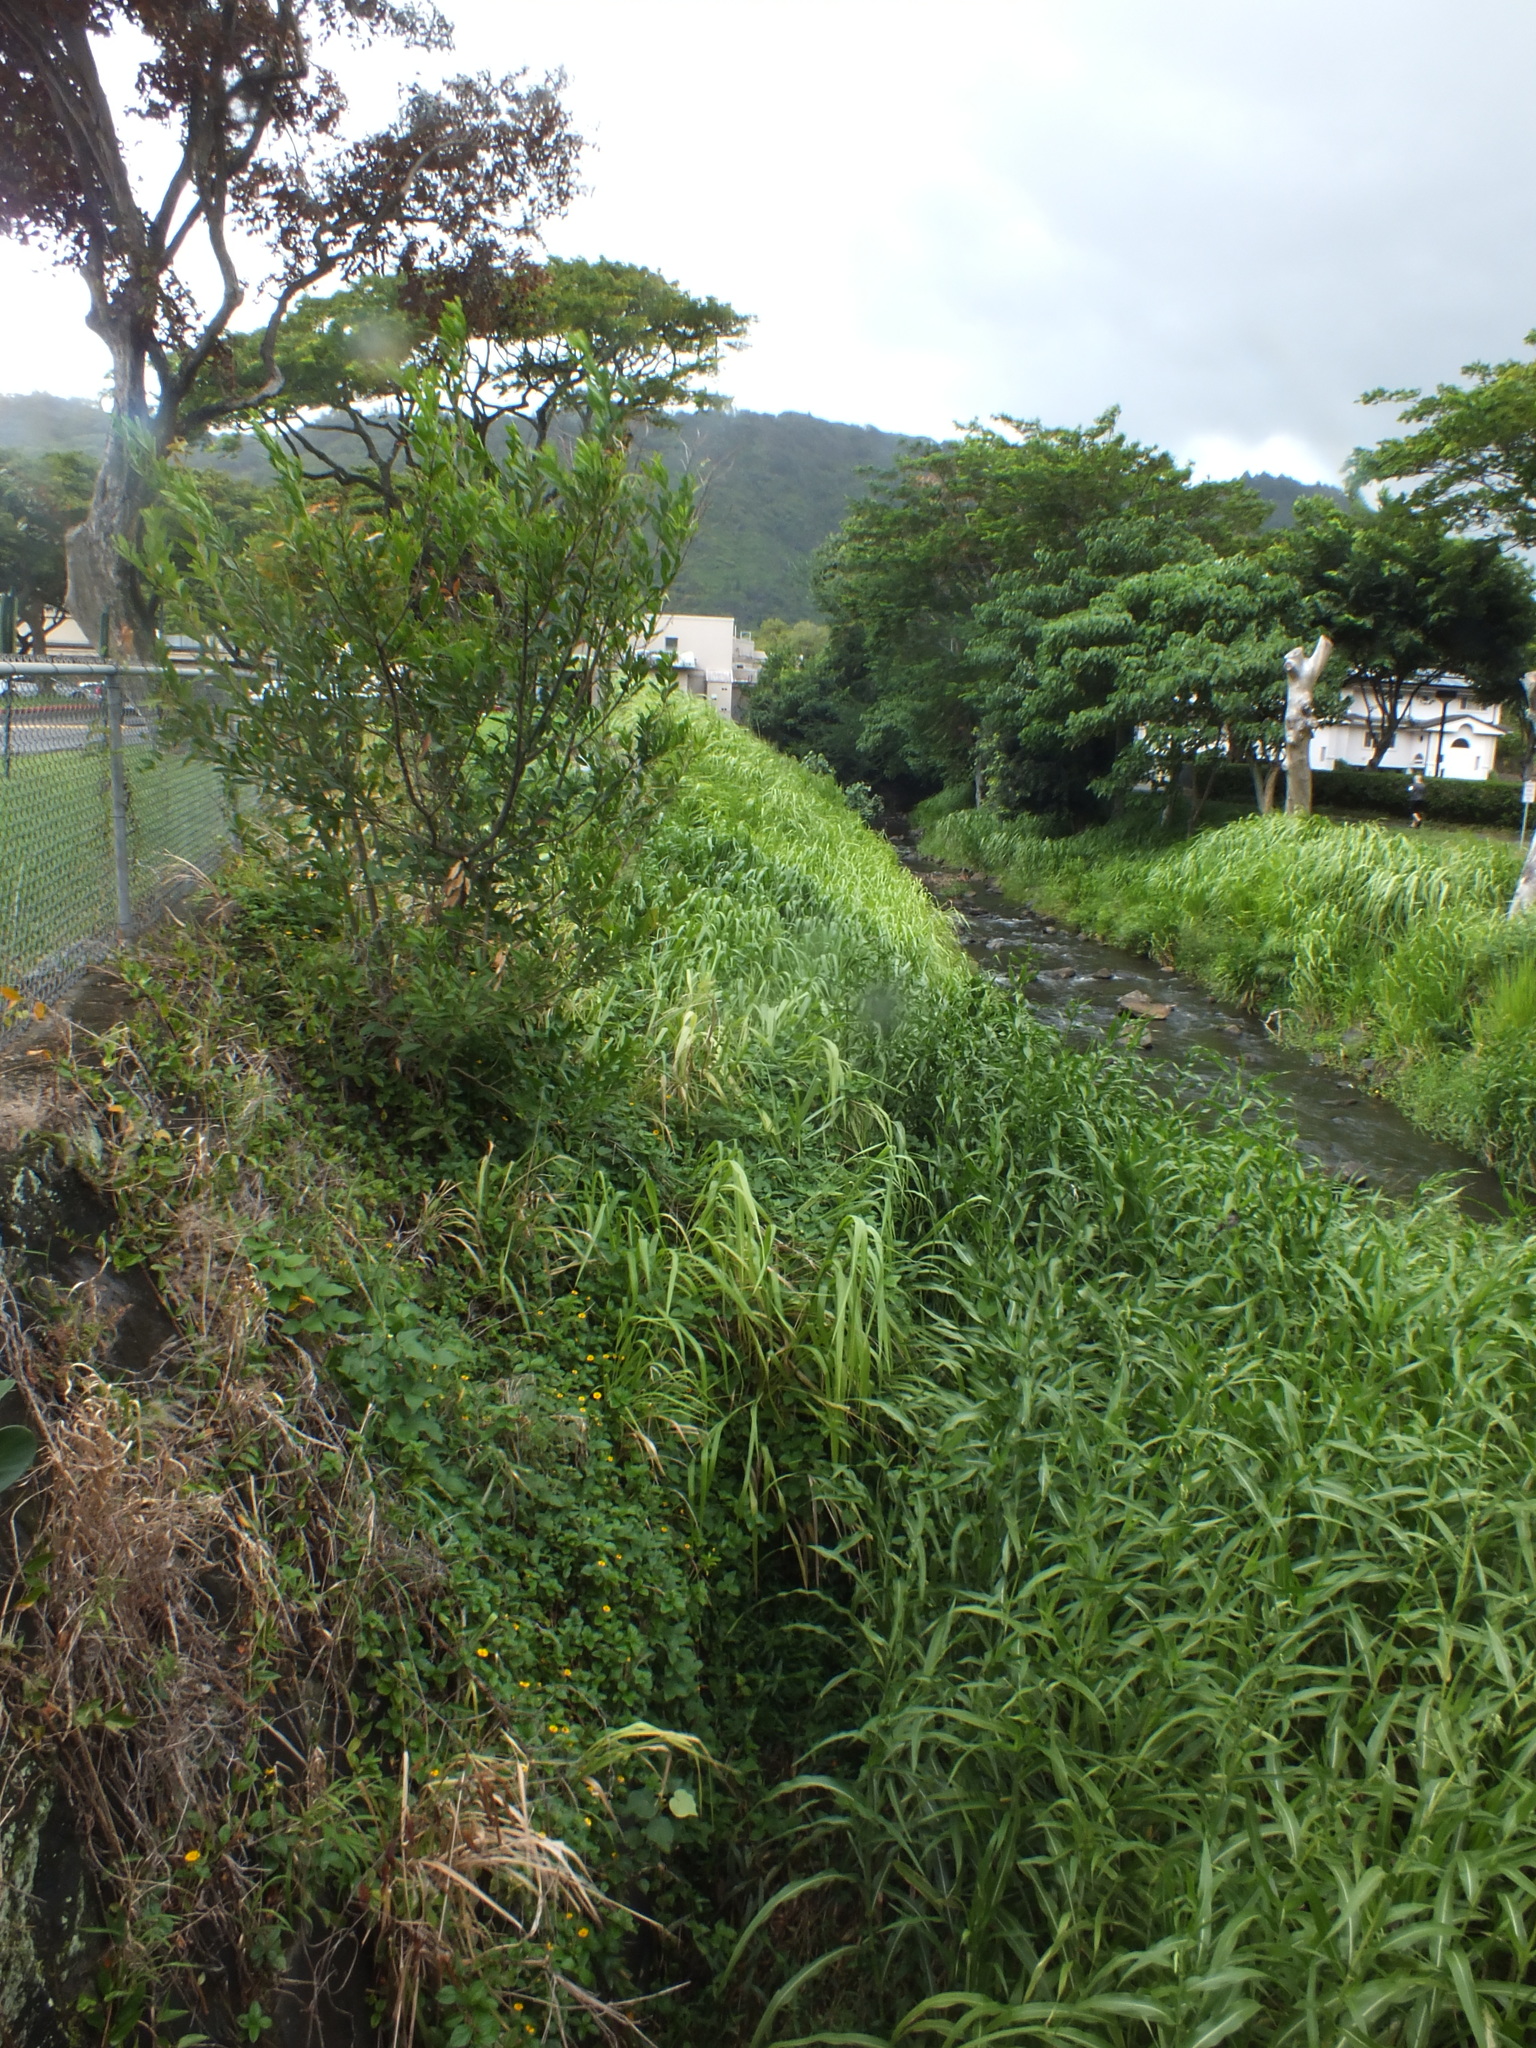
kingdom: Plantae
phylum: Tracheophyta
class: Magnoliopsida
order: Asterales
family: Asteraceae
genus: Sphagneticola
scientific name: Sphagneticola trilobata
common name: Bay biscayne creeping-oxeye
